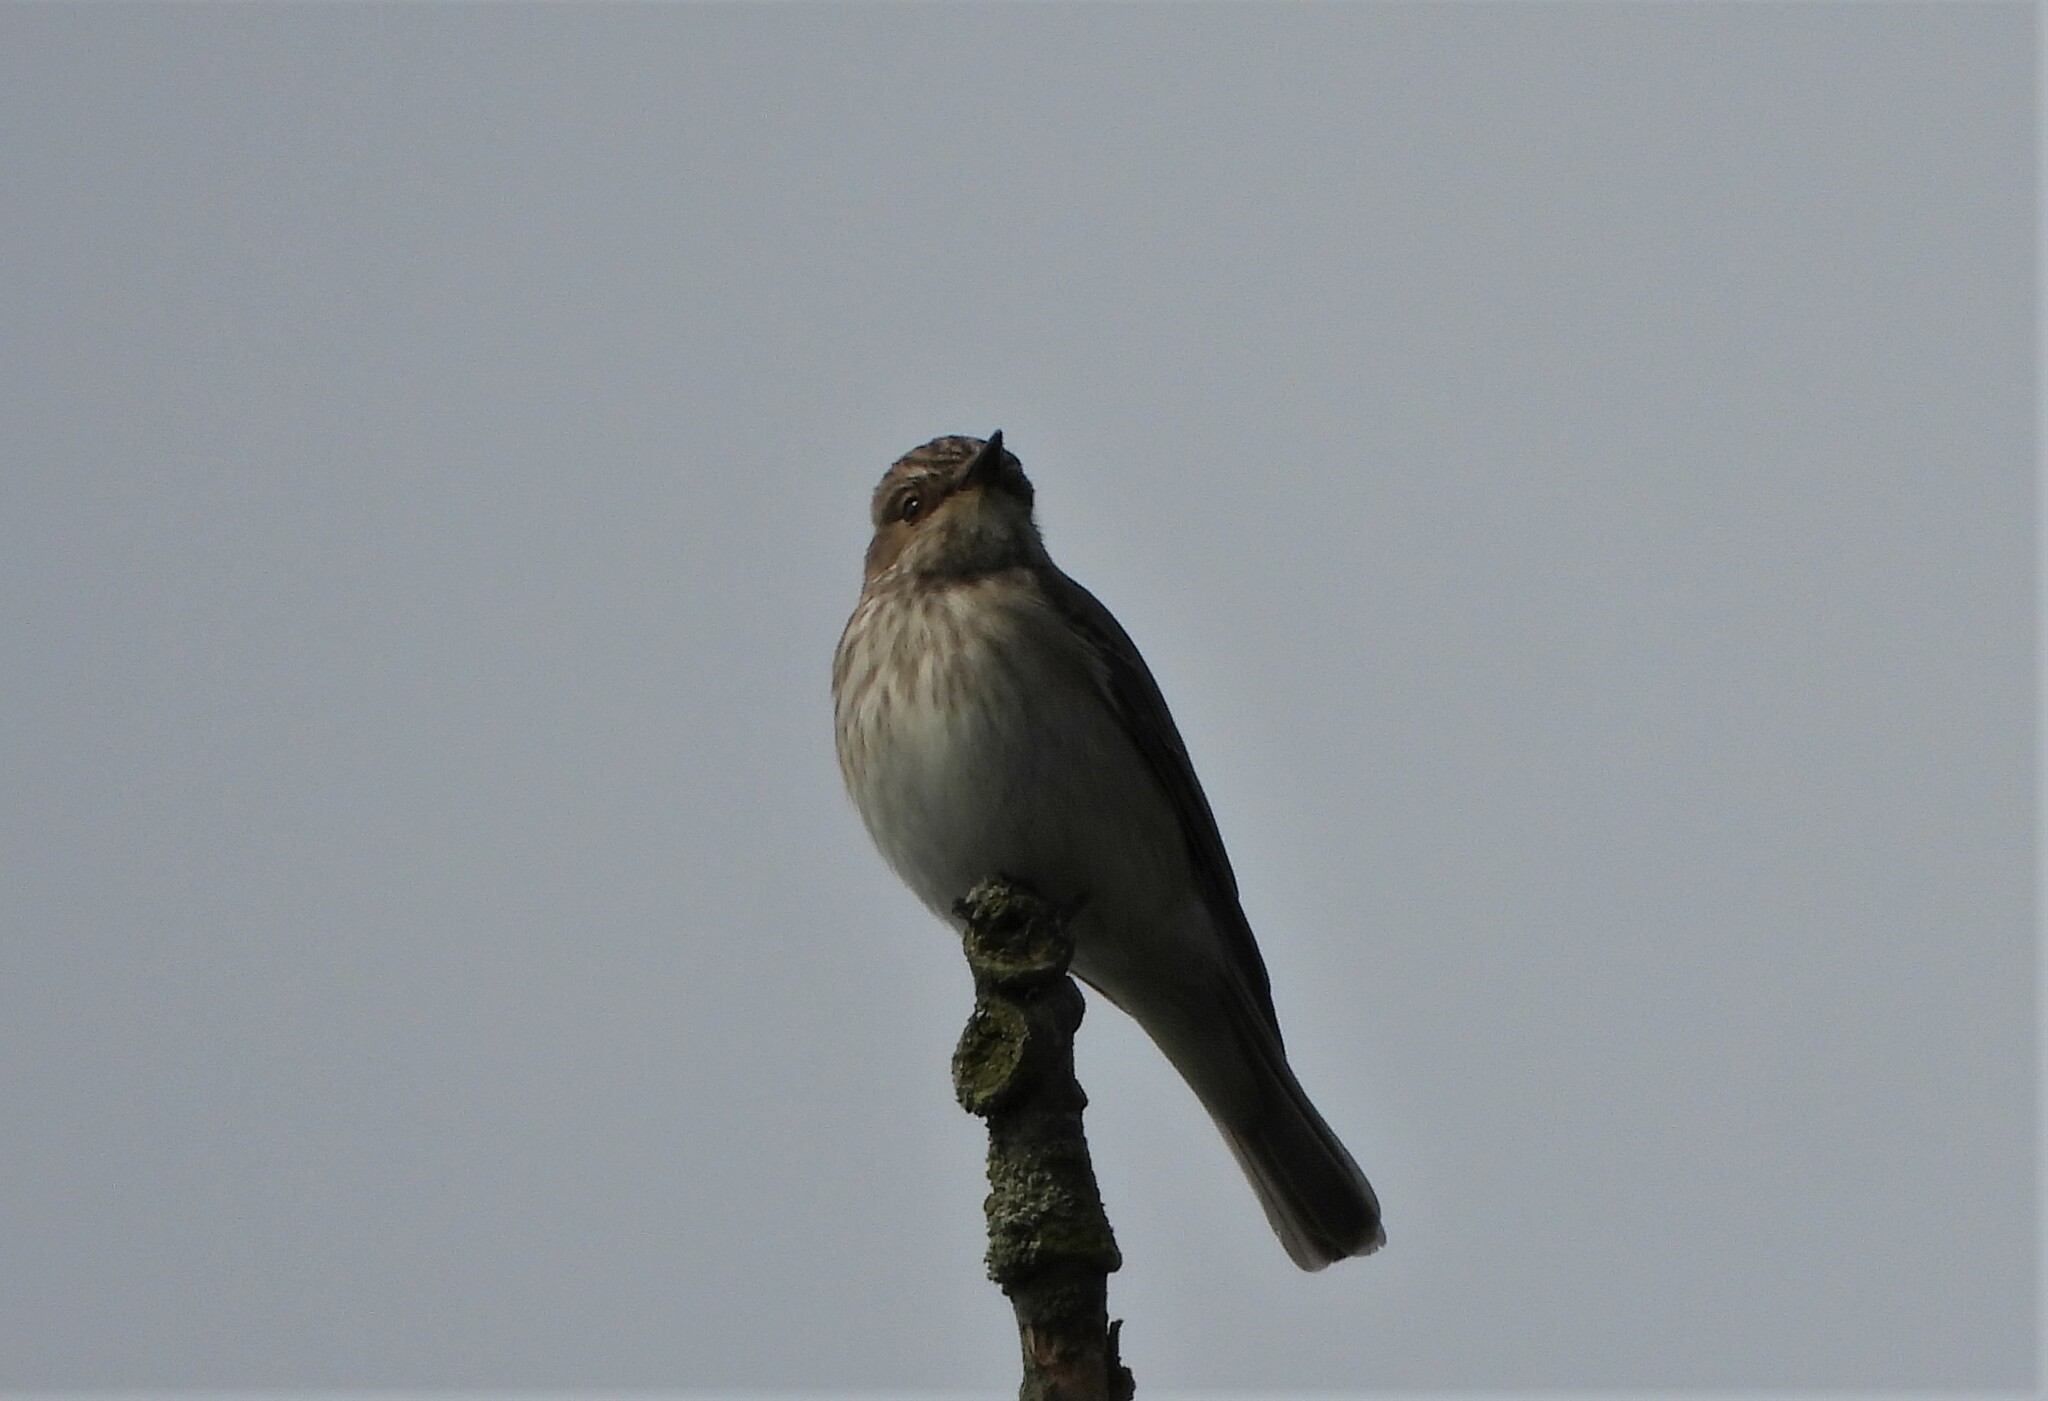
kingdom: Animalia
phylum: Chordata
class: Aves
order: Passeriformes
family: Muscicapidae
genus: Muscicapa
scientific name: Muscicapa striata
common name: Spotted flycatcher
